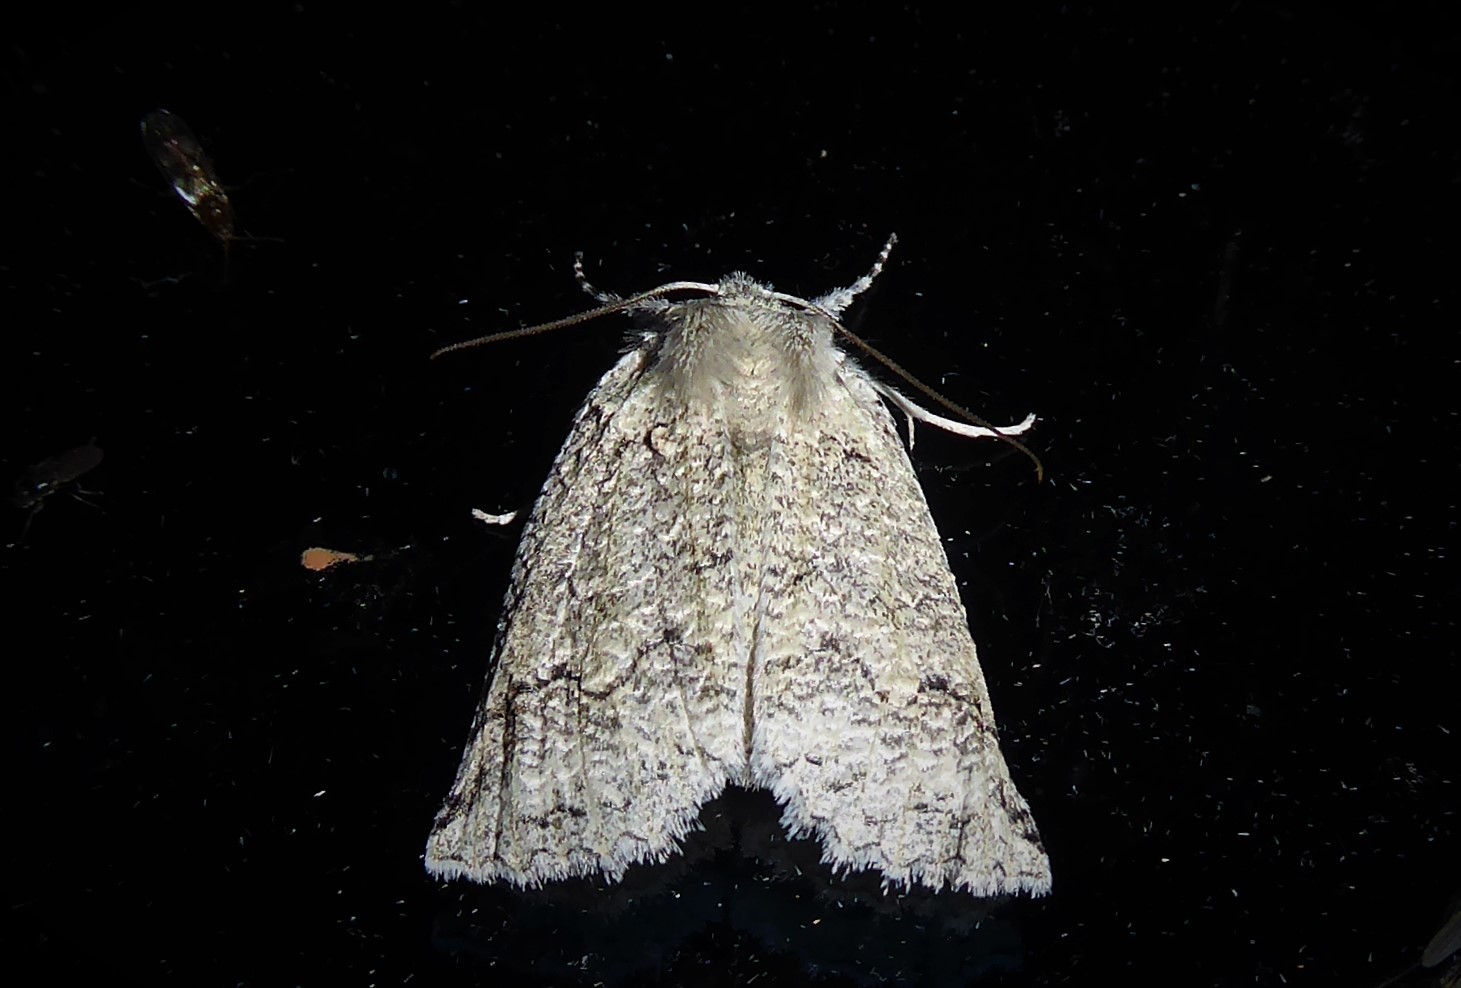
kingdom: Animalia
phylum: Arthropoda
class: Insecta
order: Lepidoptera
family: Geometridae
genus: Declana
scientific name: Declana floccosa
